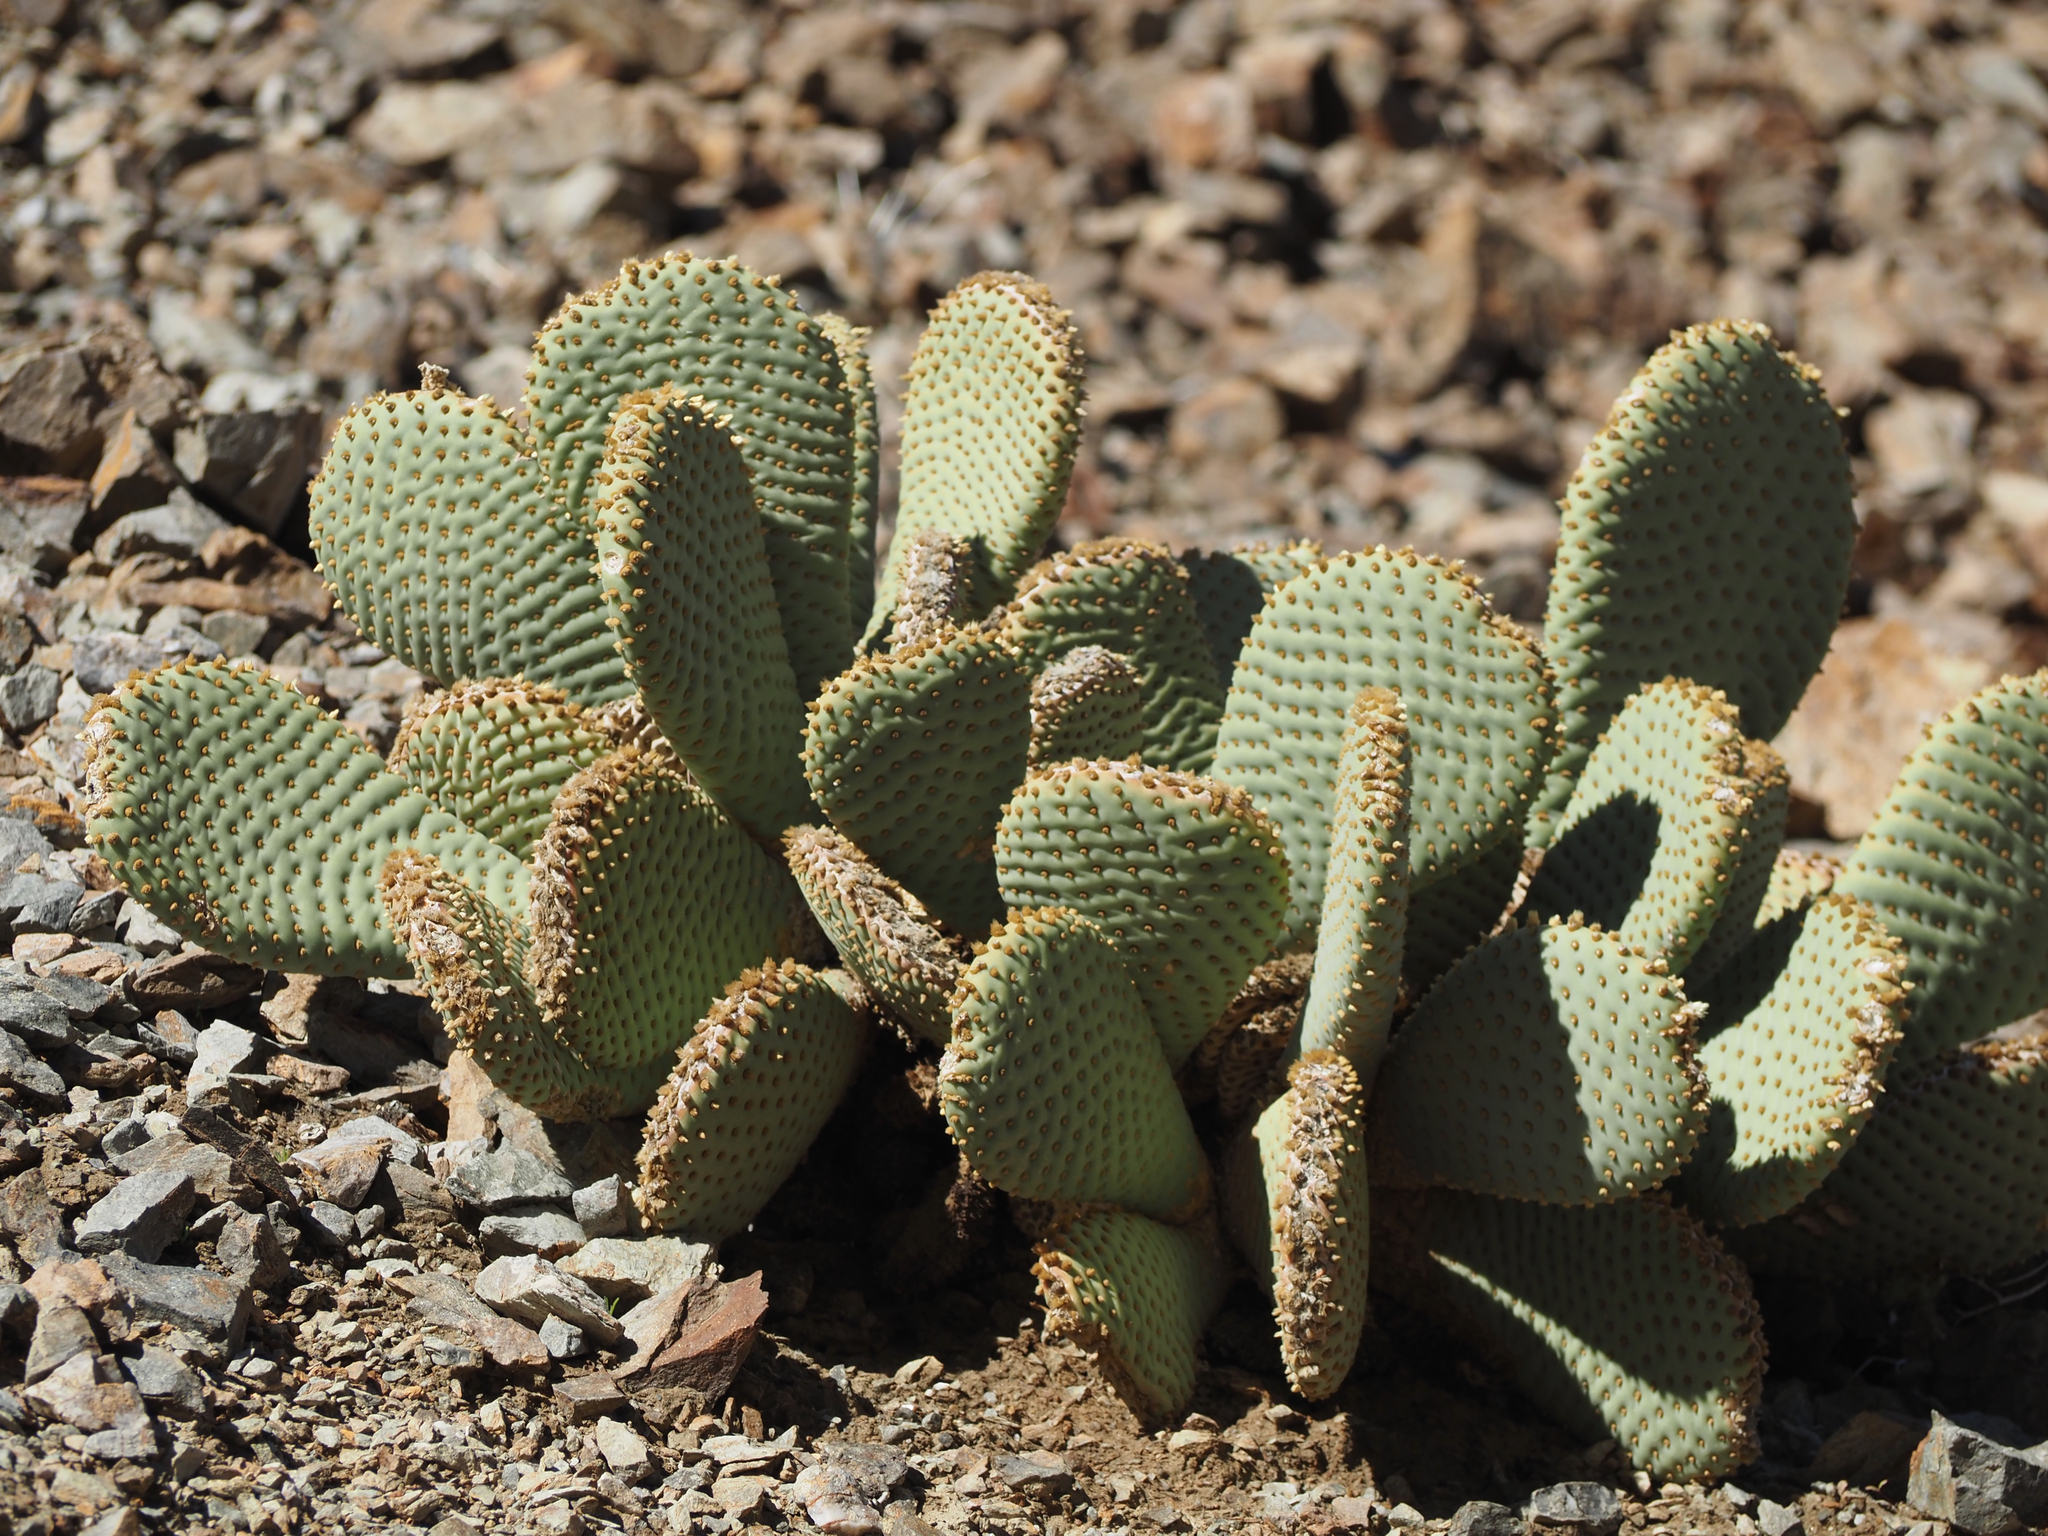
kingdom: Plantae
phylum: Tracheophyta
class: Magnoliopsida
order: Caryophyllales
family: Cactaceae
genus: Opuntia
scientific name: Opuntia basilaris
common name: Beavertail prickly-pear
